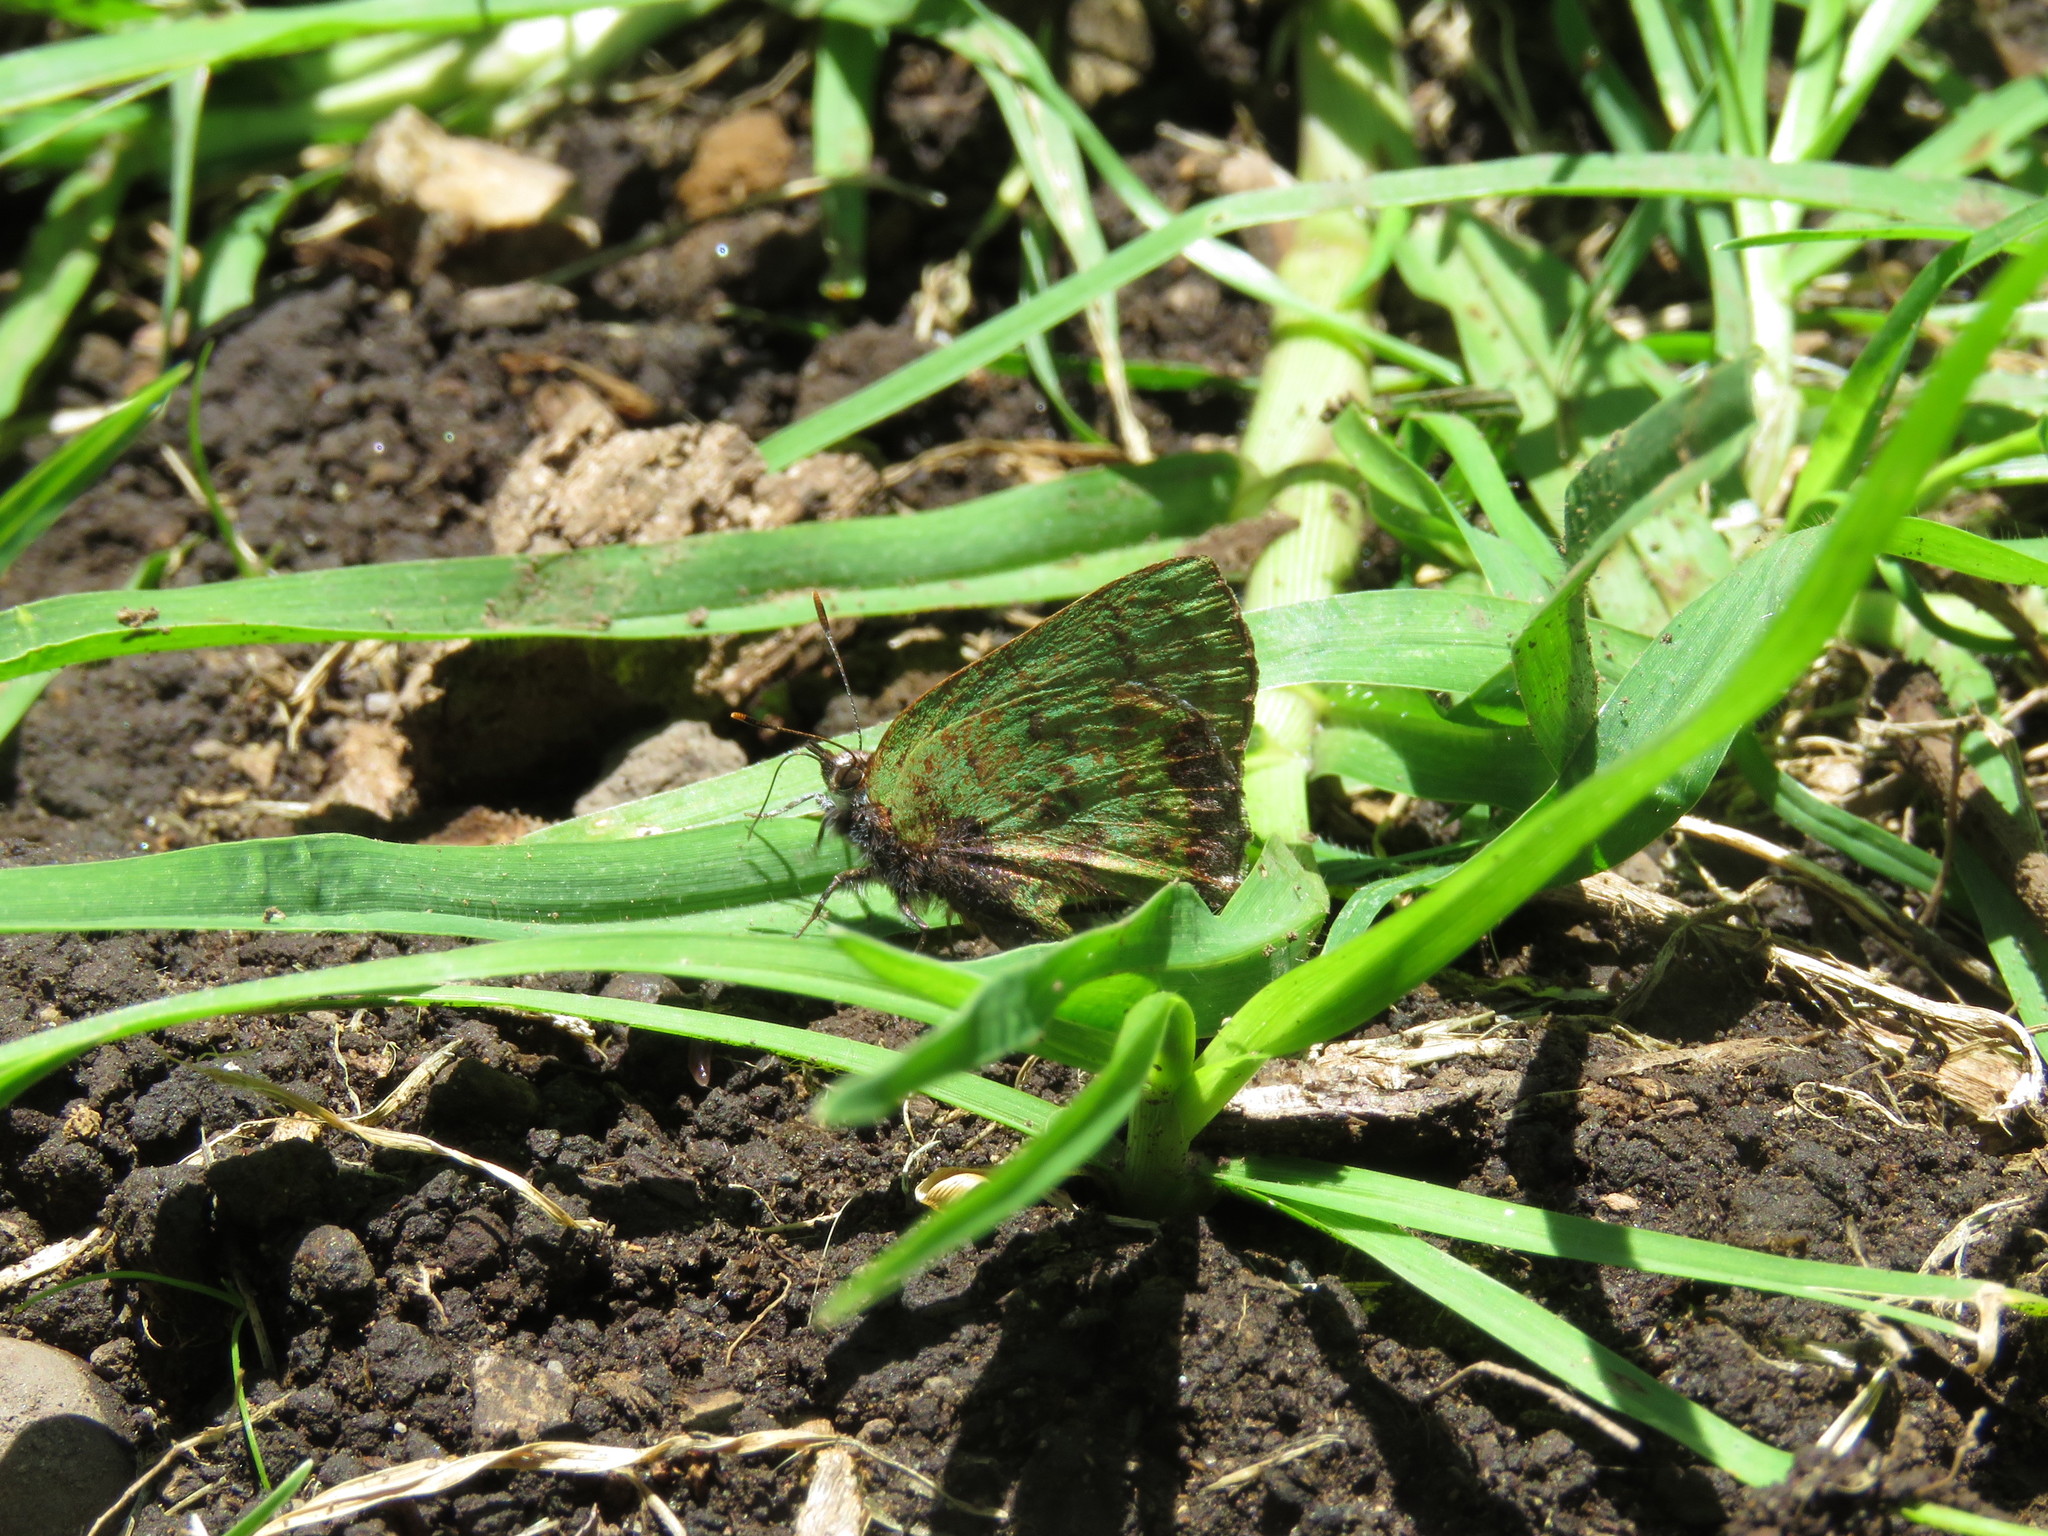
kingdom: Animalia
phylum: Arthropoda
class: Insecta
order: Lepidoptera
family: Lycaenidae
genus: Cyanophrys
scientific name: Cyanophrys banosensis
